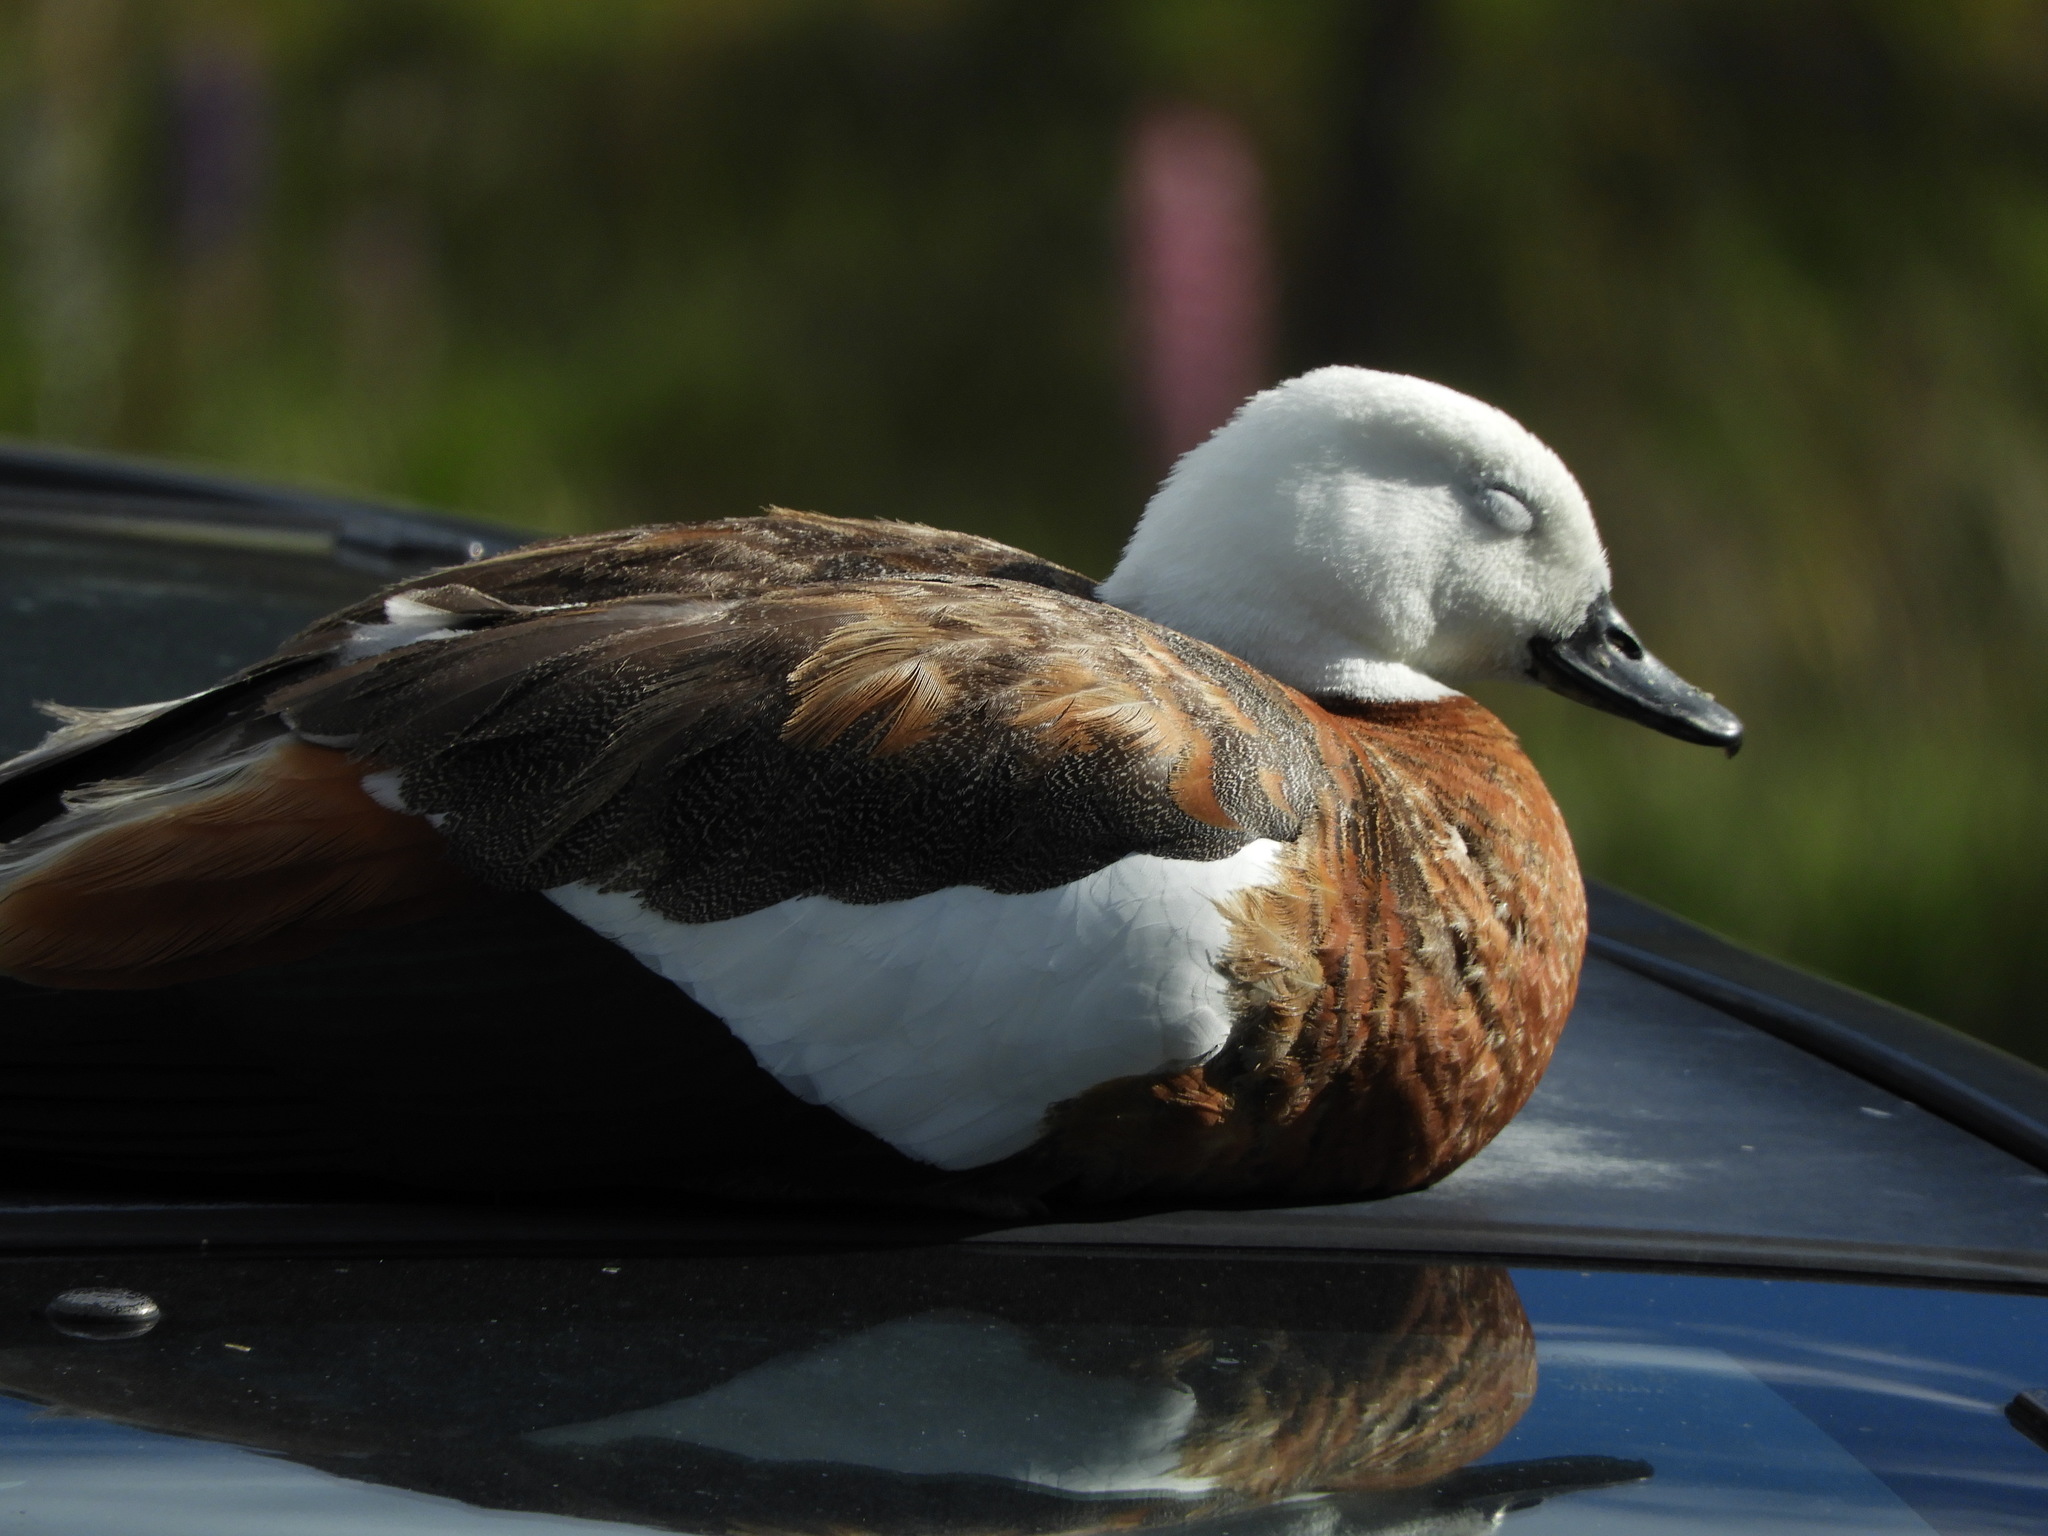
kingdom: Animalia
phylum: Chordata
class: Aves
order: Anseriformes
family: Anatidae
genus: Tadorna
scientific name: Tadorna variegata
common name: Paradise shelduck
